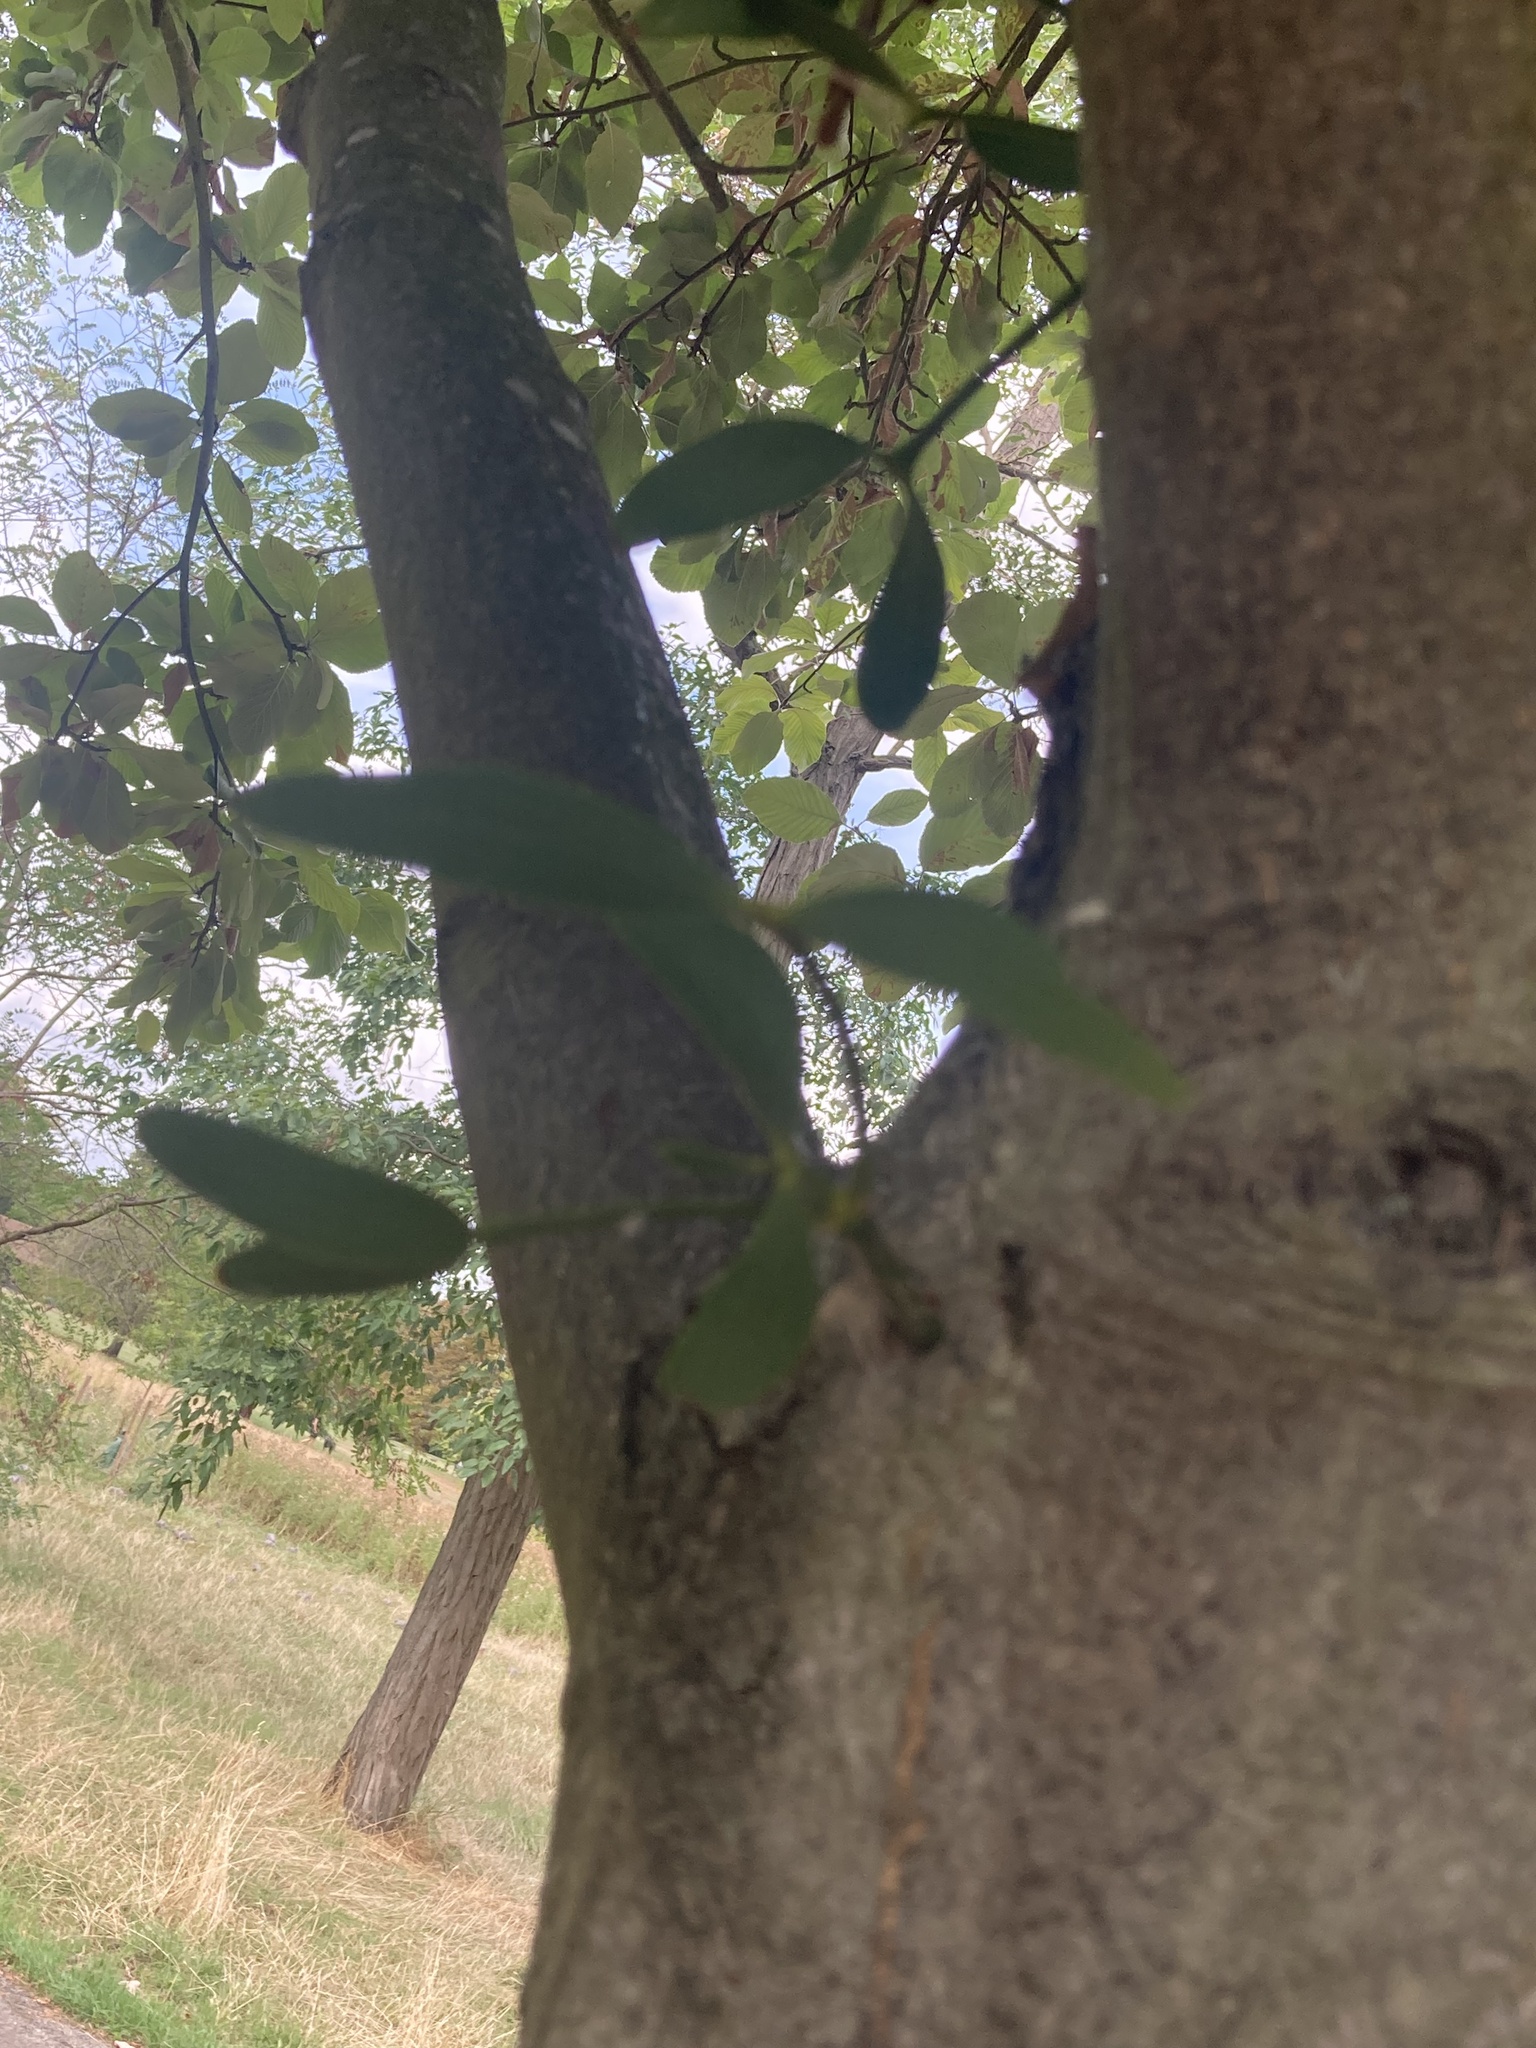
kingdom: Plantae
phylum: Tracheophyta
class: Magnoliopsida
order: Santalales
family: Viscaceae
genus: Viscum
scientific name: Viscum album
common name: Mistletoe
